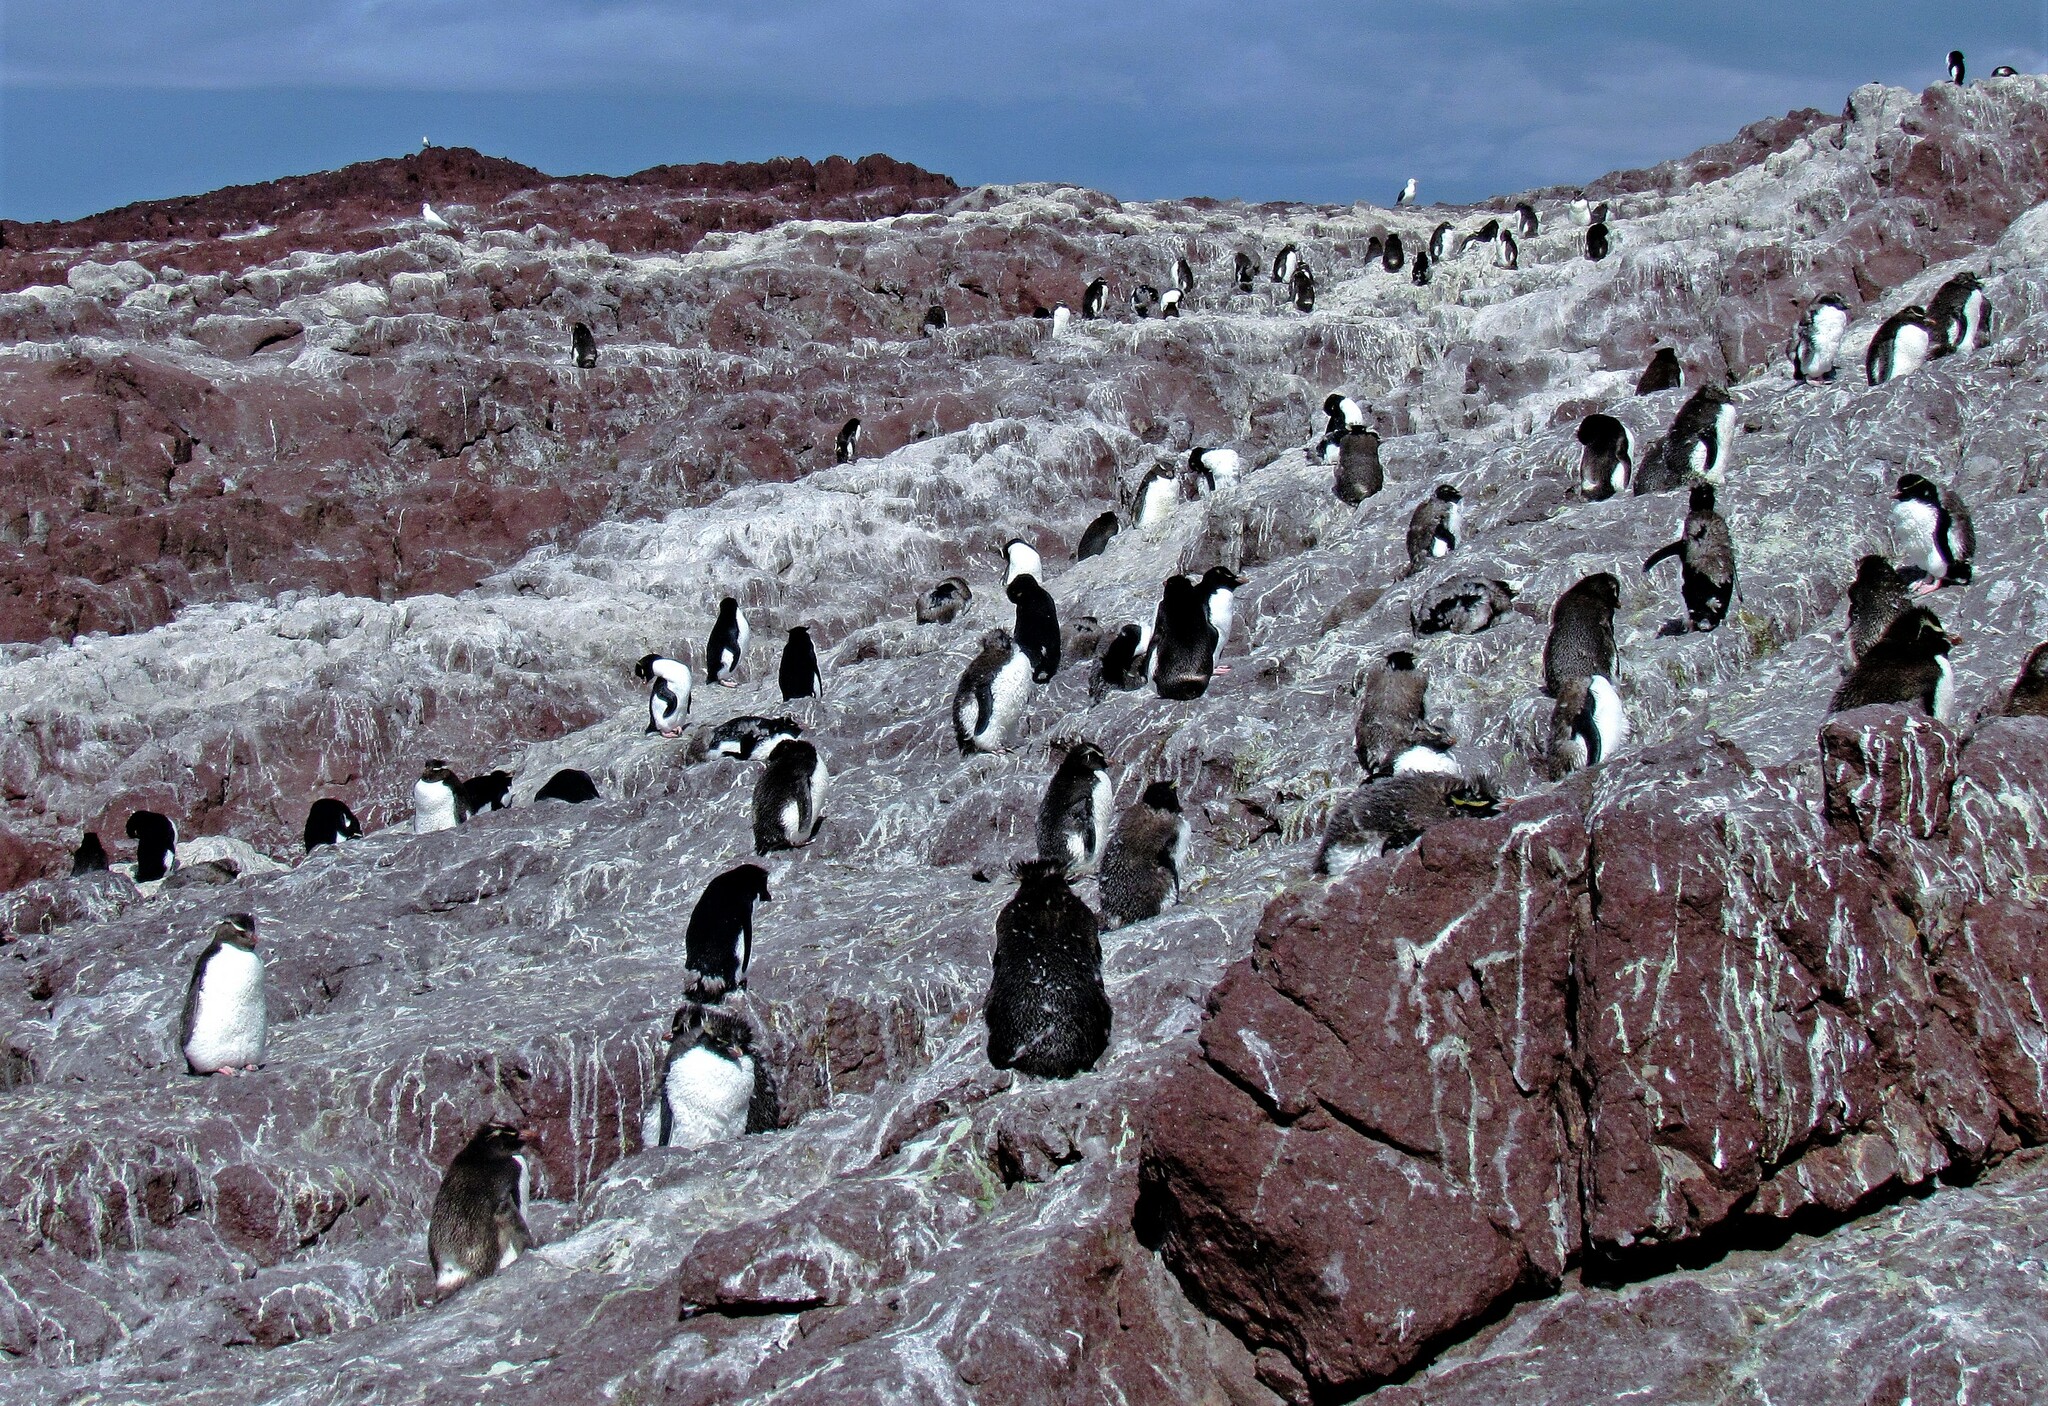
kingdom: Animalia
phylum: Chordata
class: Aves
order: Sphenisciformes
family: Spheniscidae
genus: Eudyptes
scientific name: Eudyptes chrysocome
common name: Southern rockhopper penguin
